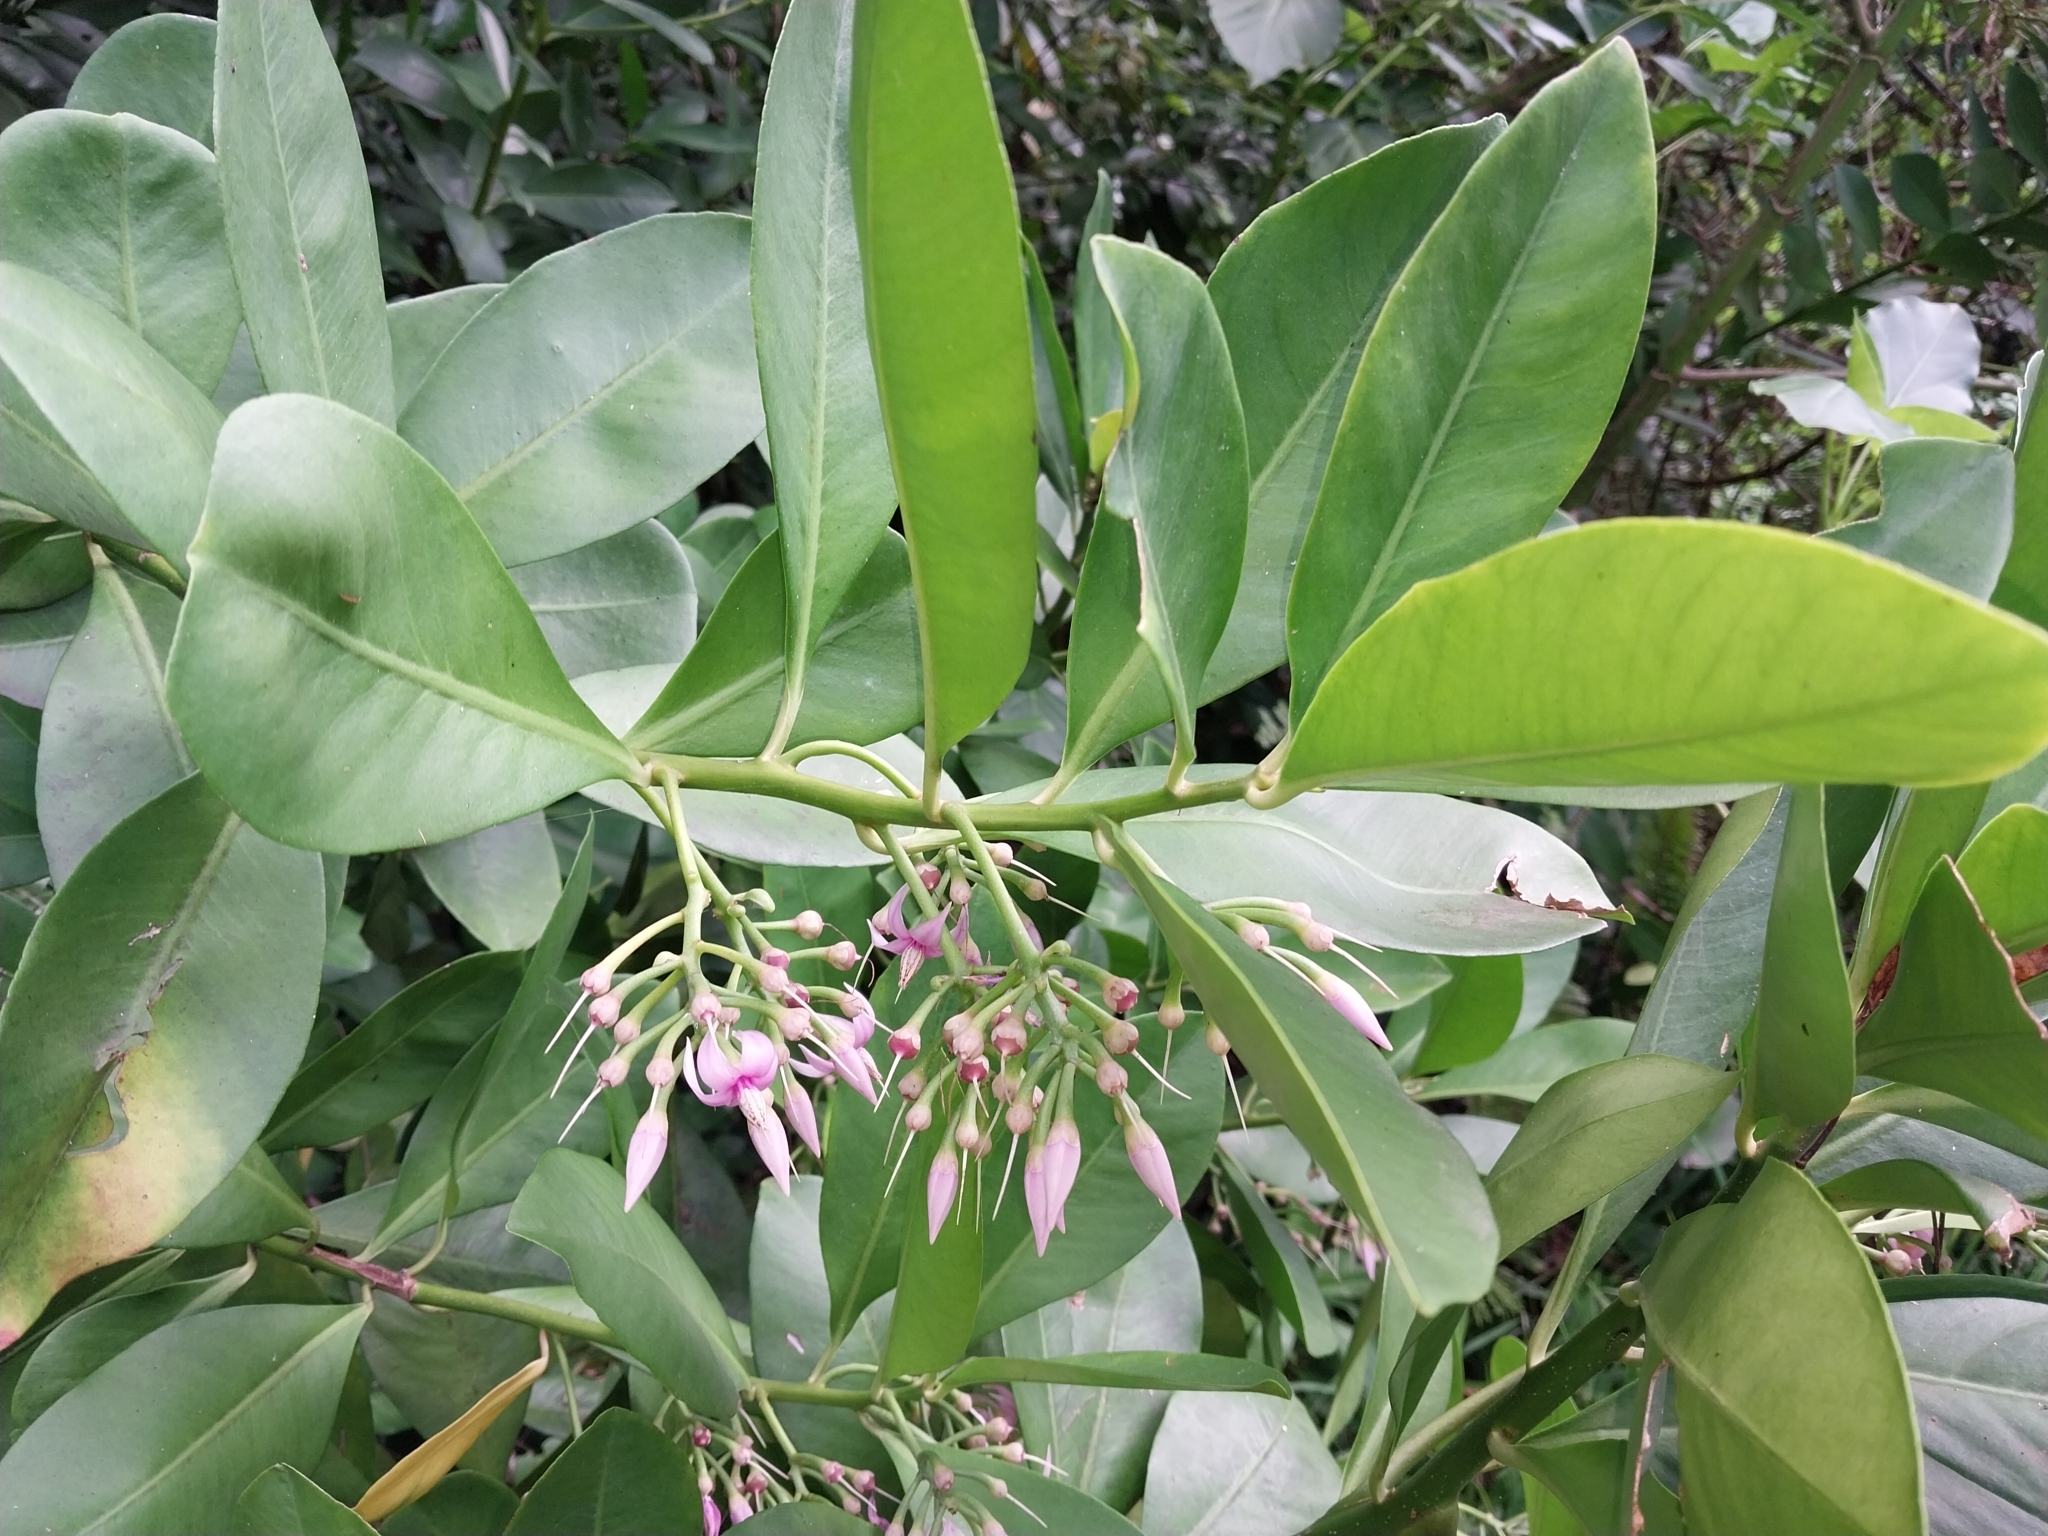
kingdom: Plantae
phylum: Tracheophyta
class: Magnoliopsida
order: Ericales
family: Primulaceae
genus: Ardisia
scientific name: Ardisia elliptica
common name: Shoebutton
